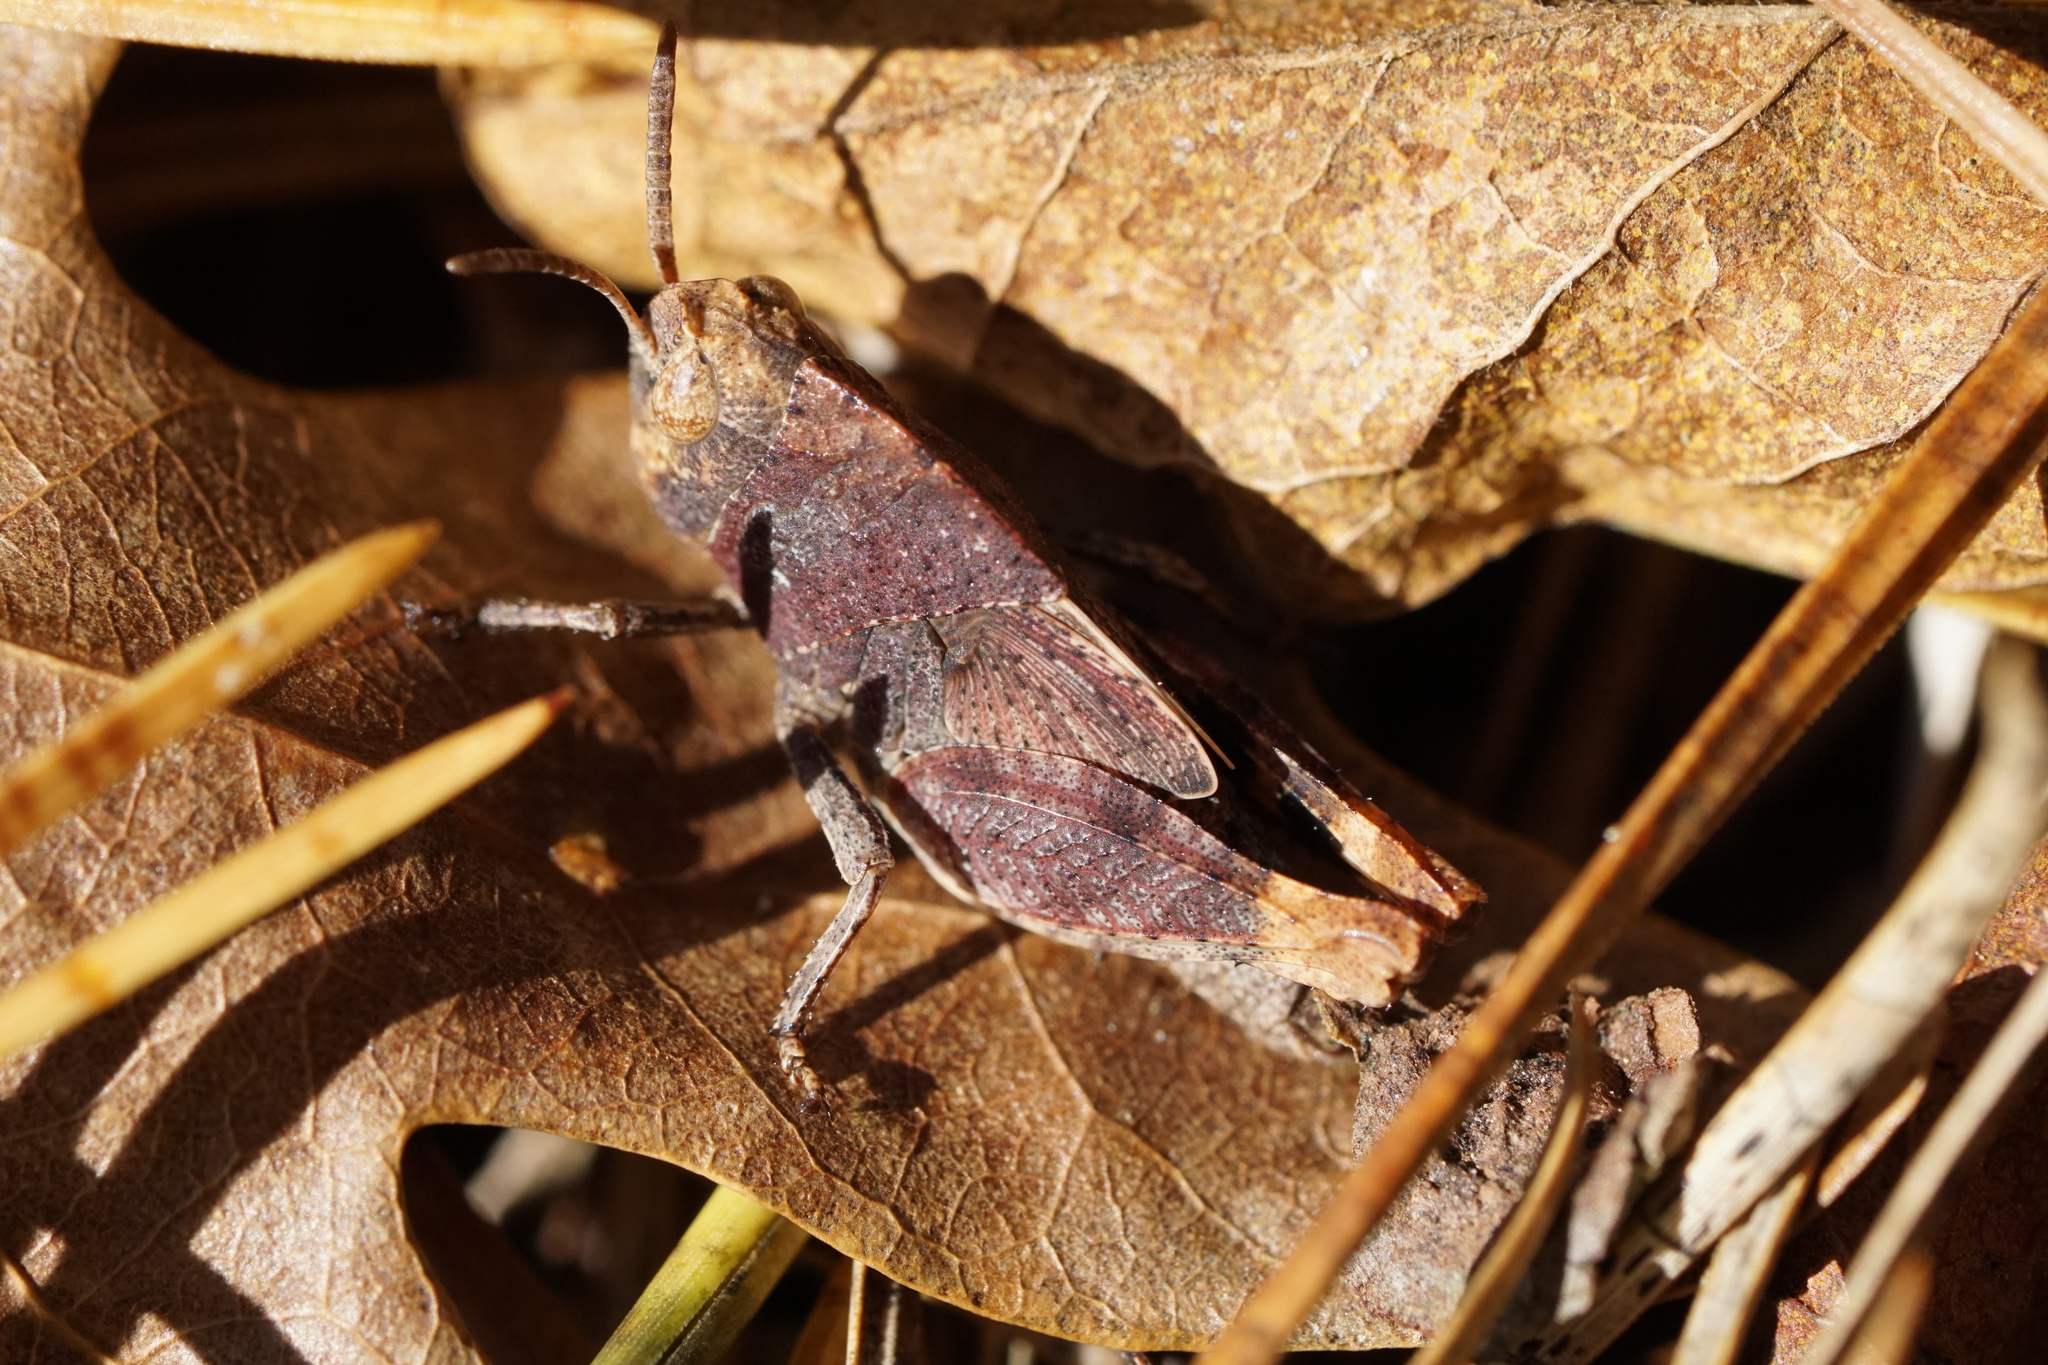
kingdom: Animalia
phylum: Arthropoda
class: Insecta
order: Orthoptera
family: Acrididae
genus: Arphia
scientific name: Arphia sulphurea
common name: Spring yellow-winged locust
